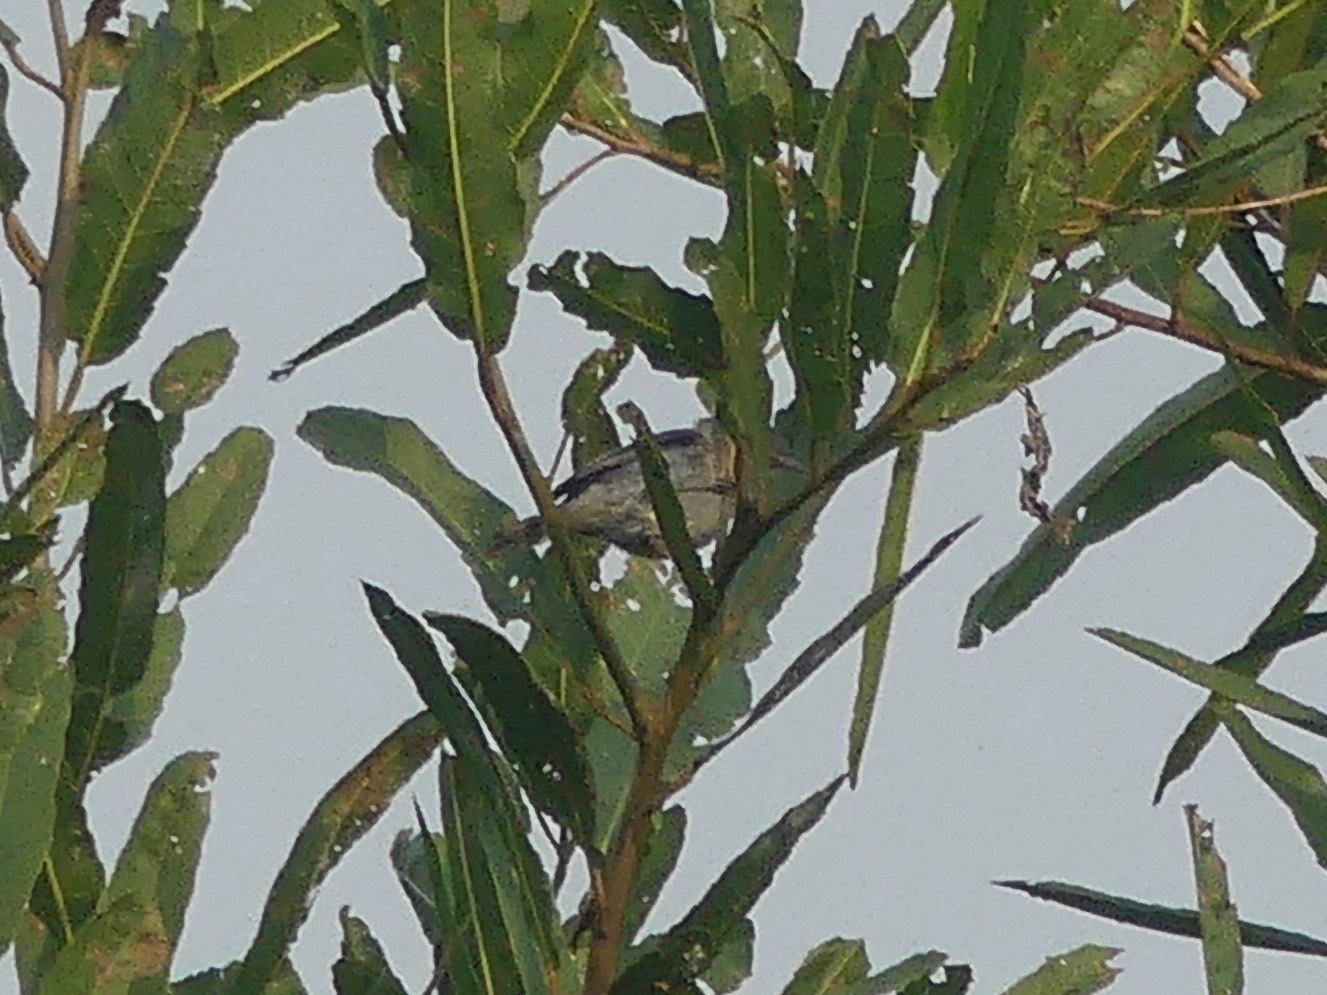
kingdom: Animalia
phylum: Chordata
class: Aves
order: Passeriformes
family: Thraupidae
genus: Conirostrum
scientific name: Conirostrum bicolor
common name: Bicolored conebill
